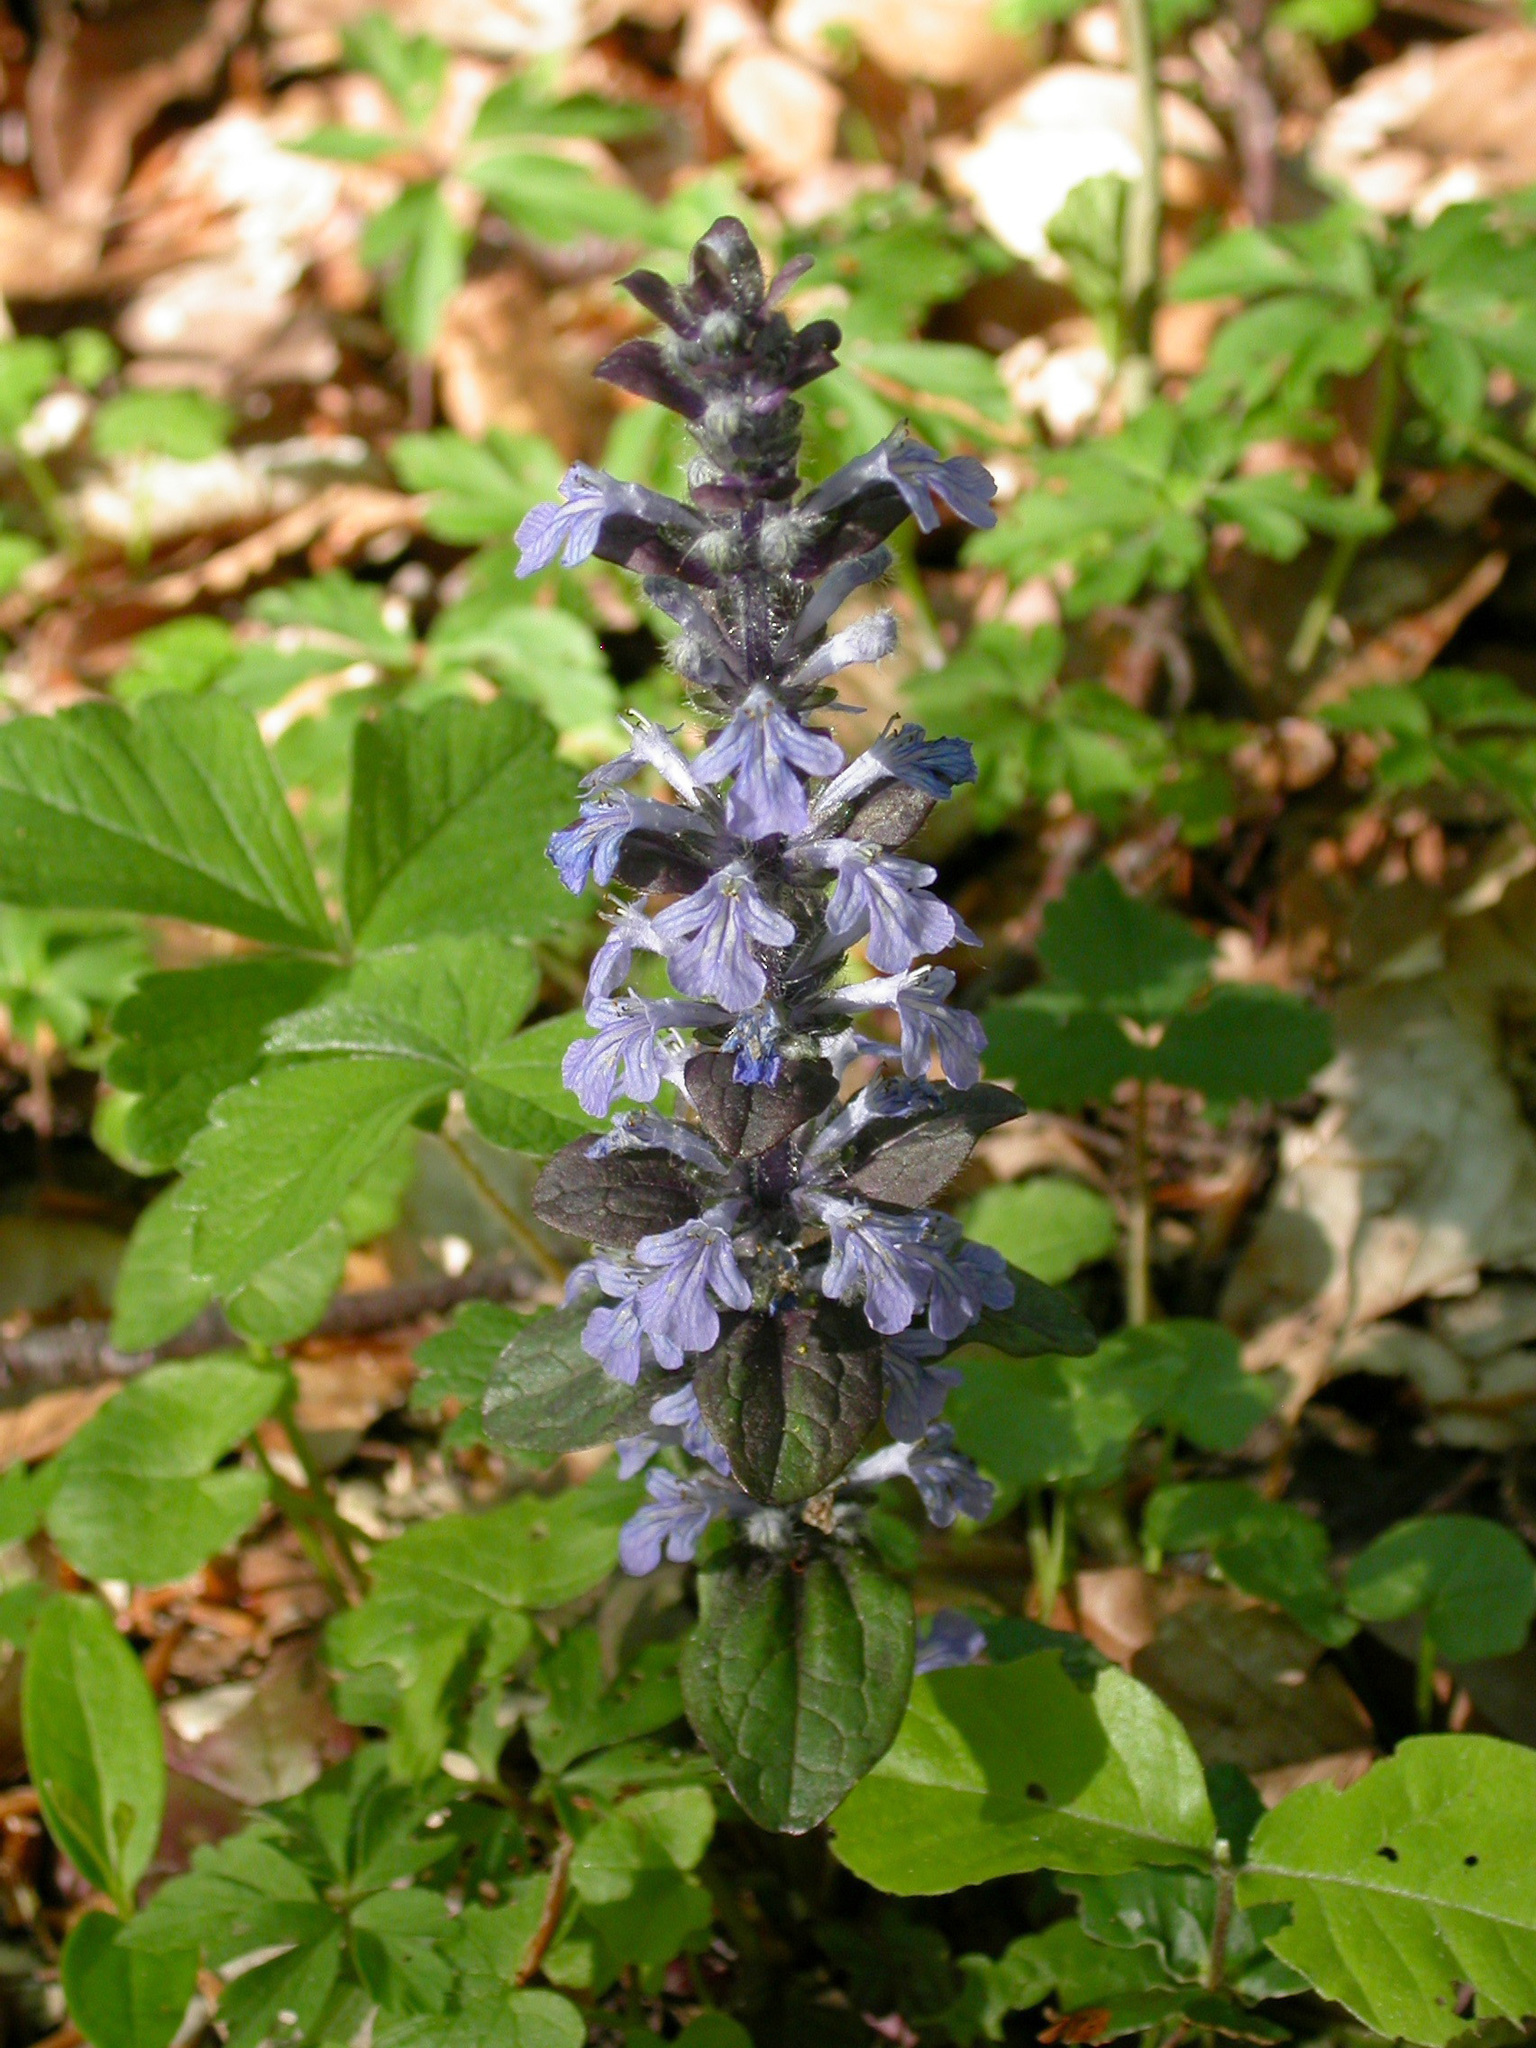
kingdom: Plantae
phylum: Tracheophyta
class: Magnoliopsida
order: Lamiales
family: Lamiaceae
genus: Ajuga
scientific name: Ajuga reptans
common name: Bugle
